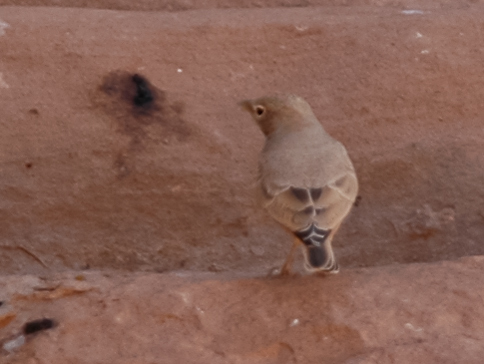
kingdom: Animalia
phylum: Chordata
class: Aves
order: Passeriformes
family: Alaudidae
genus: Ammomanes
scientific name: Ammomanes deserti
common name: Desert lark
